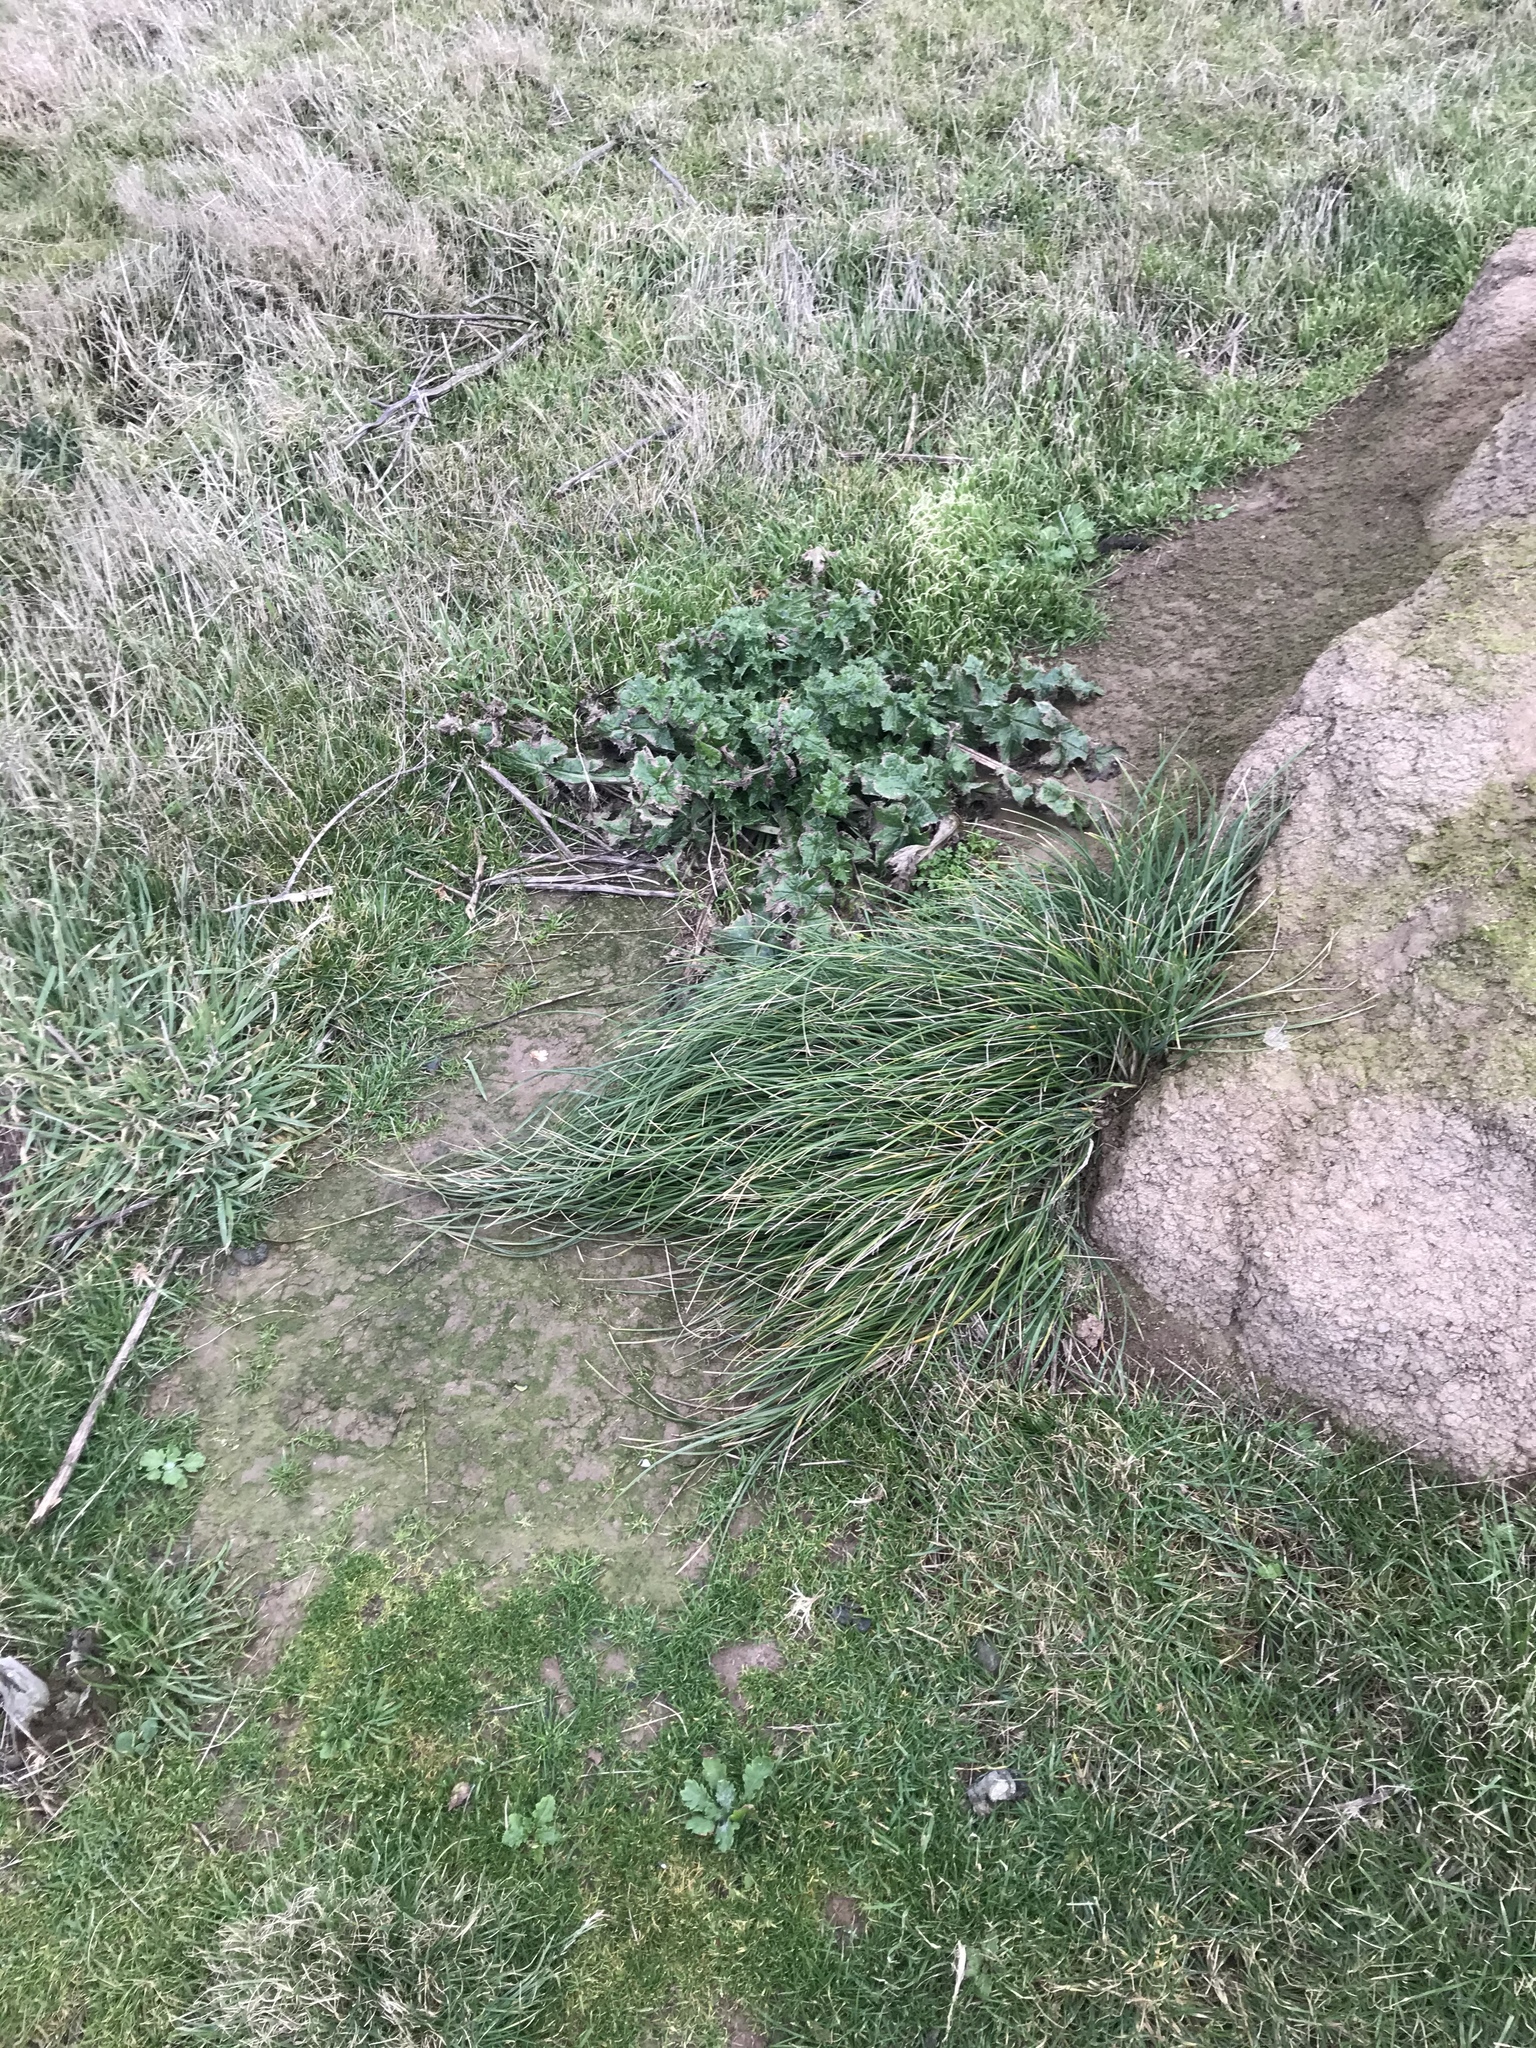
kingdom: Plantae
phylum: Tracheophyta
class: Liliopsida
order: Poales
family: Poaceae
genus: Poa
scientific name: Poa chathamica
